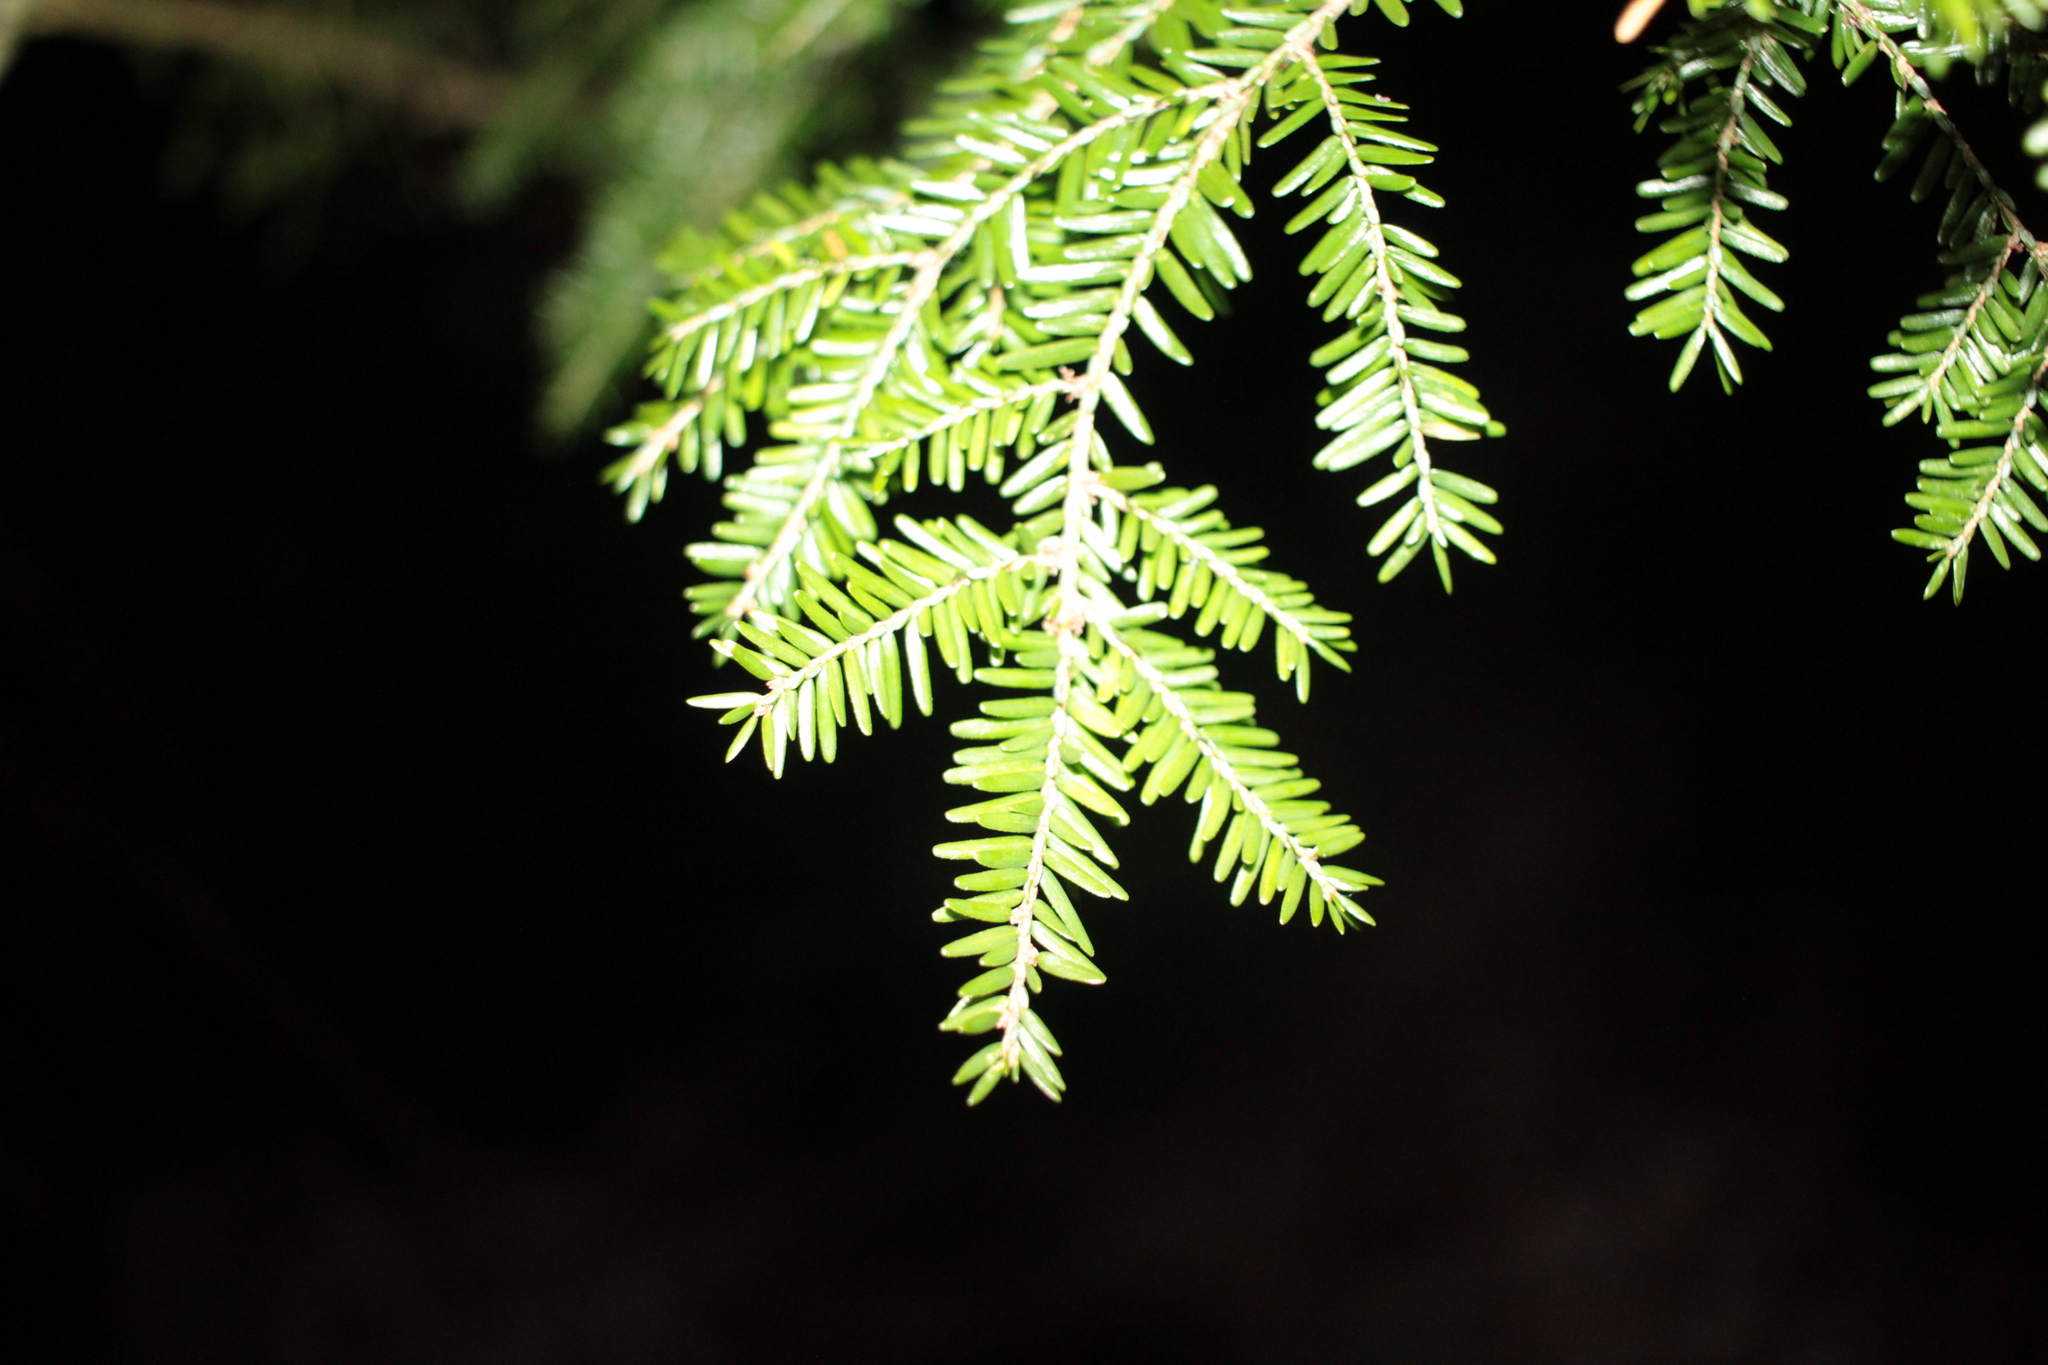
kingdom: Plantae
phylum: Tracheophyta
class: Pinopsida
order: Pinales
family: Pinaceae
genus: Tsuga
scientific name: Tsuga canadensis
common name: Eastern hemlock
